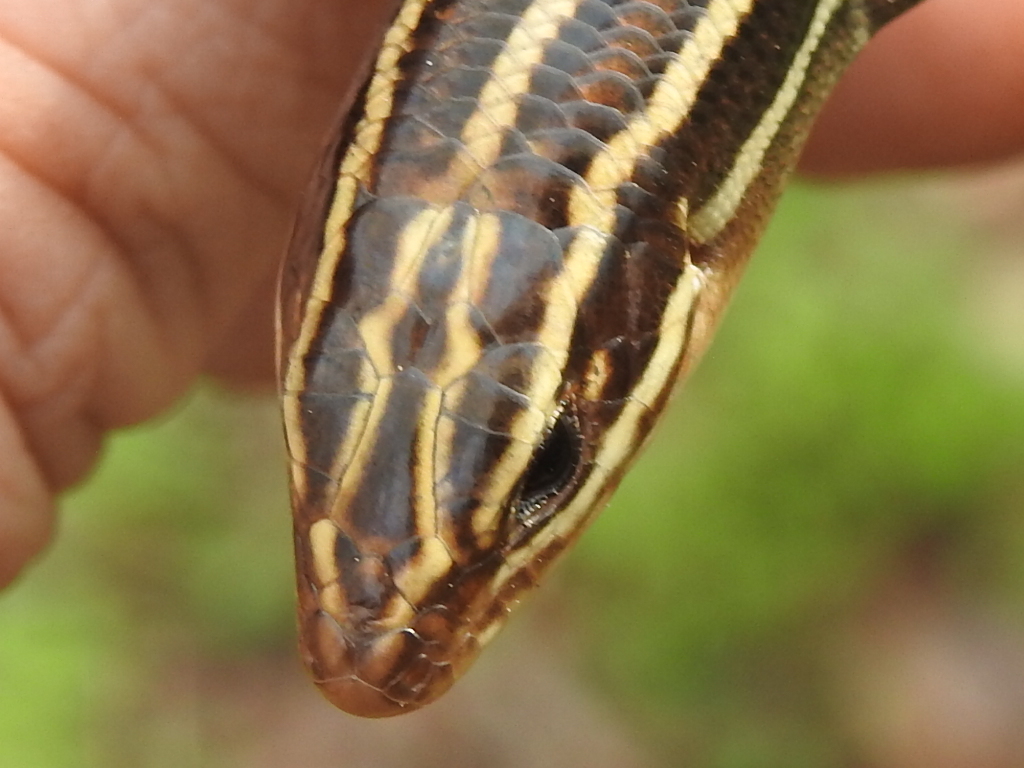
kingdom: Animalia
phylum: Chordata
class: Squamata
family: Scincidae
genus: Plestiodon
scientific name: Plestiodon laticeps
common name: Broadhead skink
